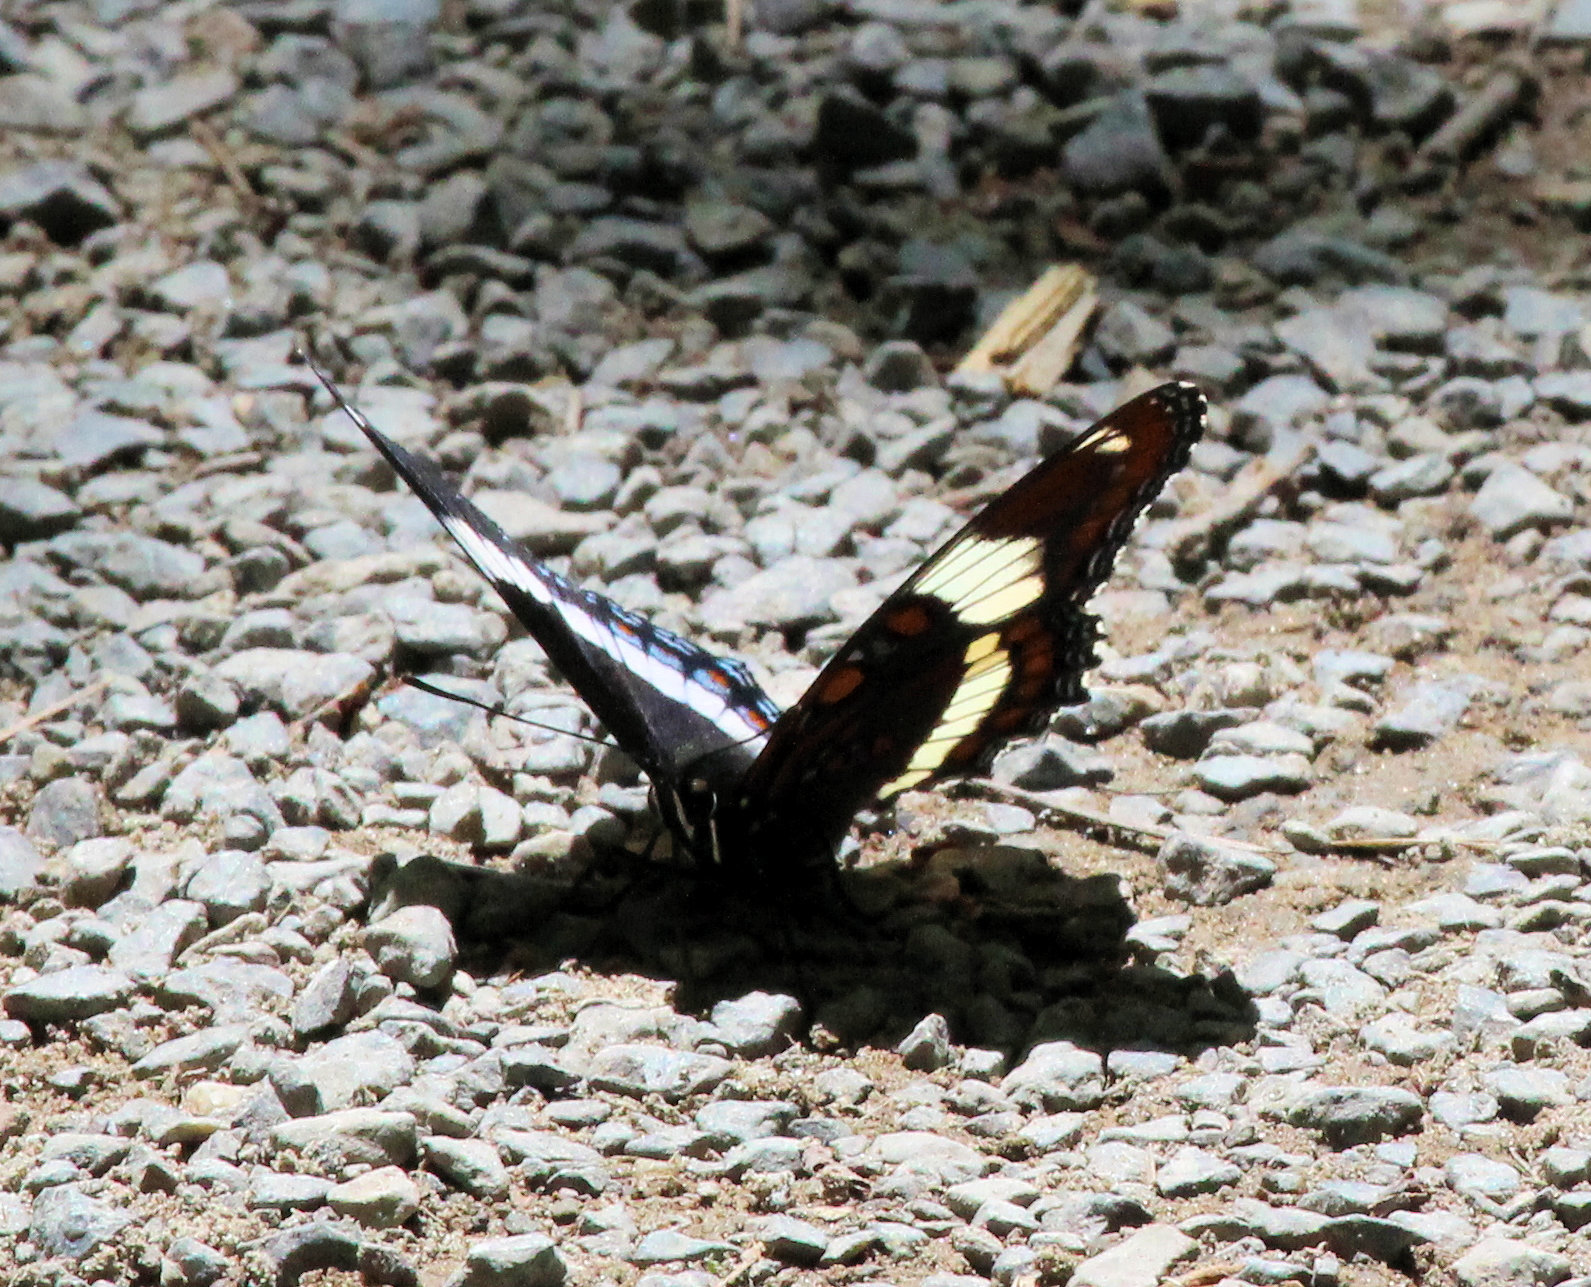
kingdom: Animalia
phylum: Arthropoda
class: Insecta
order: Lepidoptera
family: Nymphalidae
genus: Limenitis
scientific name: Limenitis arthemis
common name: Red-spotted admiral
